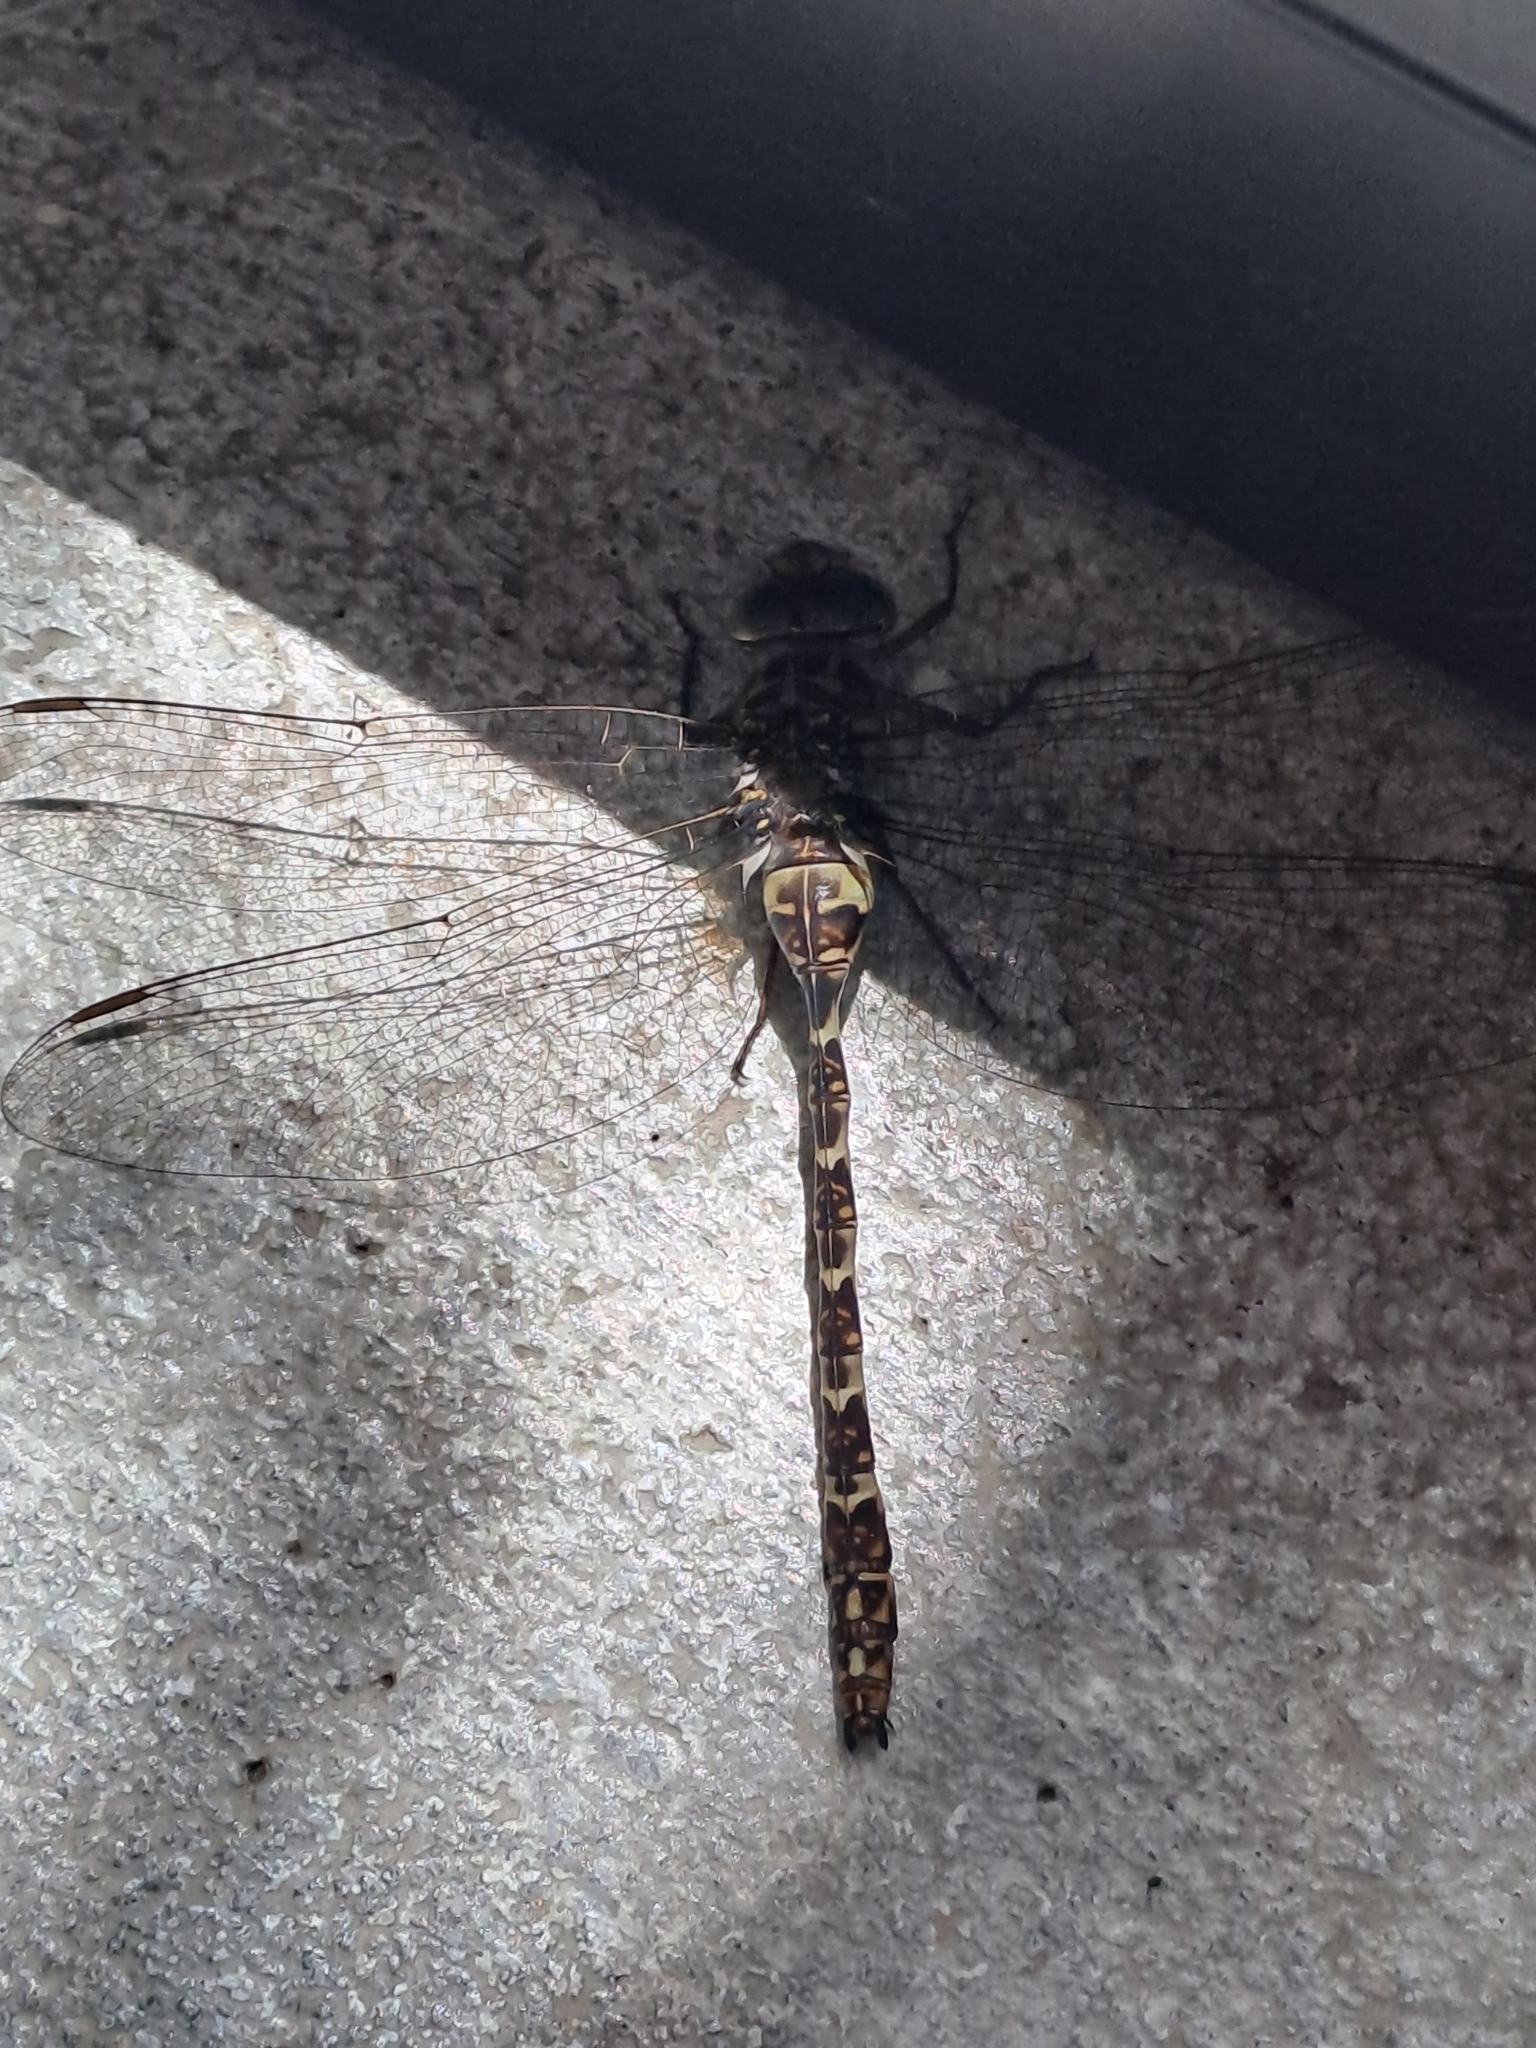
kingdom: Animalia
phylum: Arthropoda
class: Insecta
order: Odonata
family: Aeshnidae
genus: Boyeria
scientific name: Boyeria irene
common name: Western spectre
